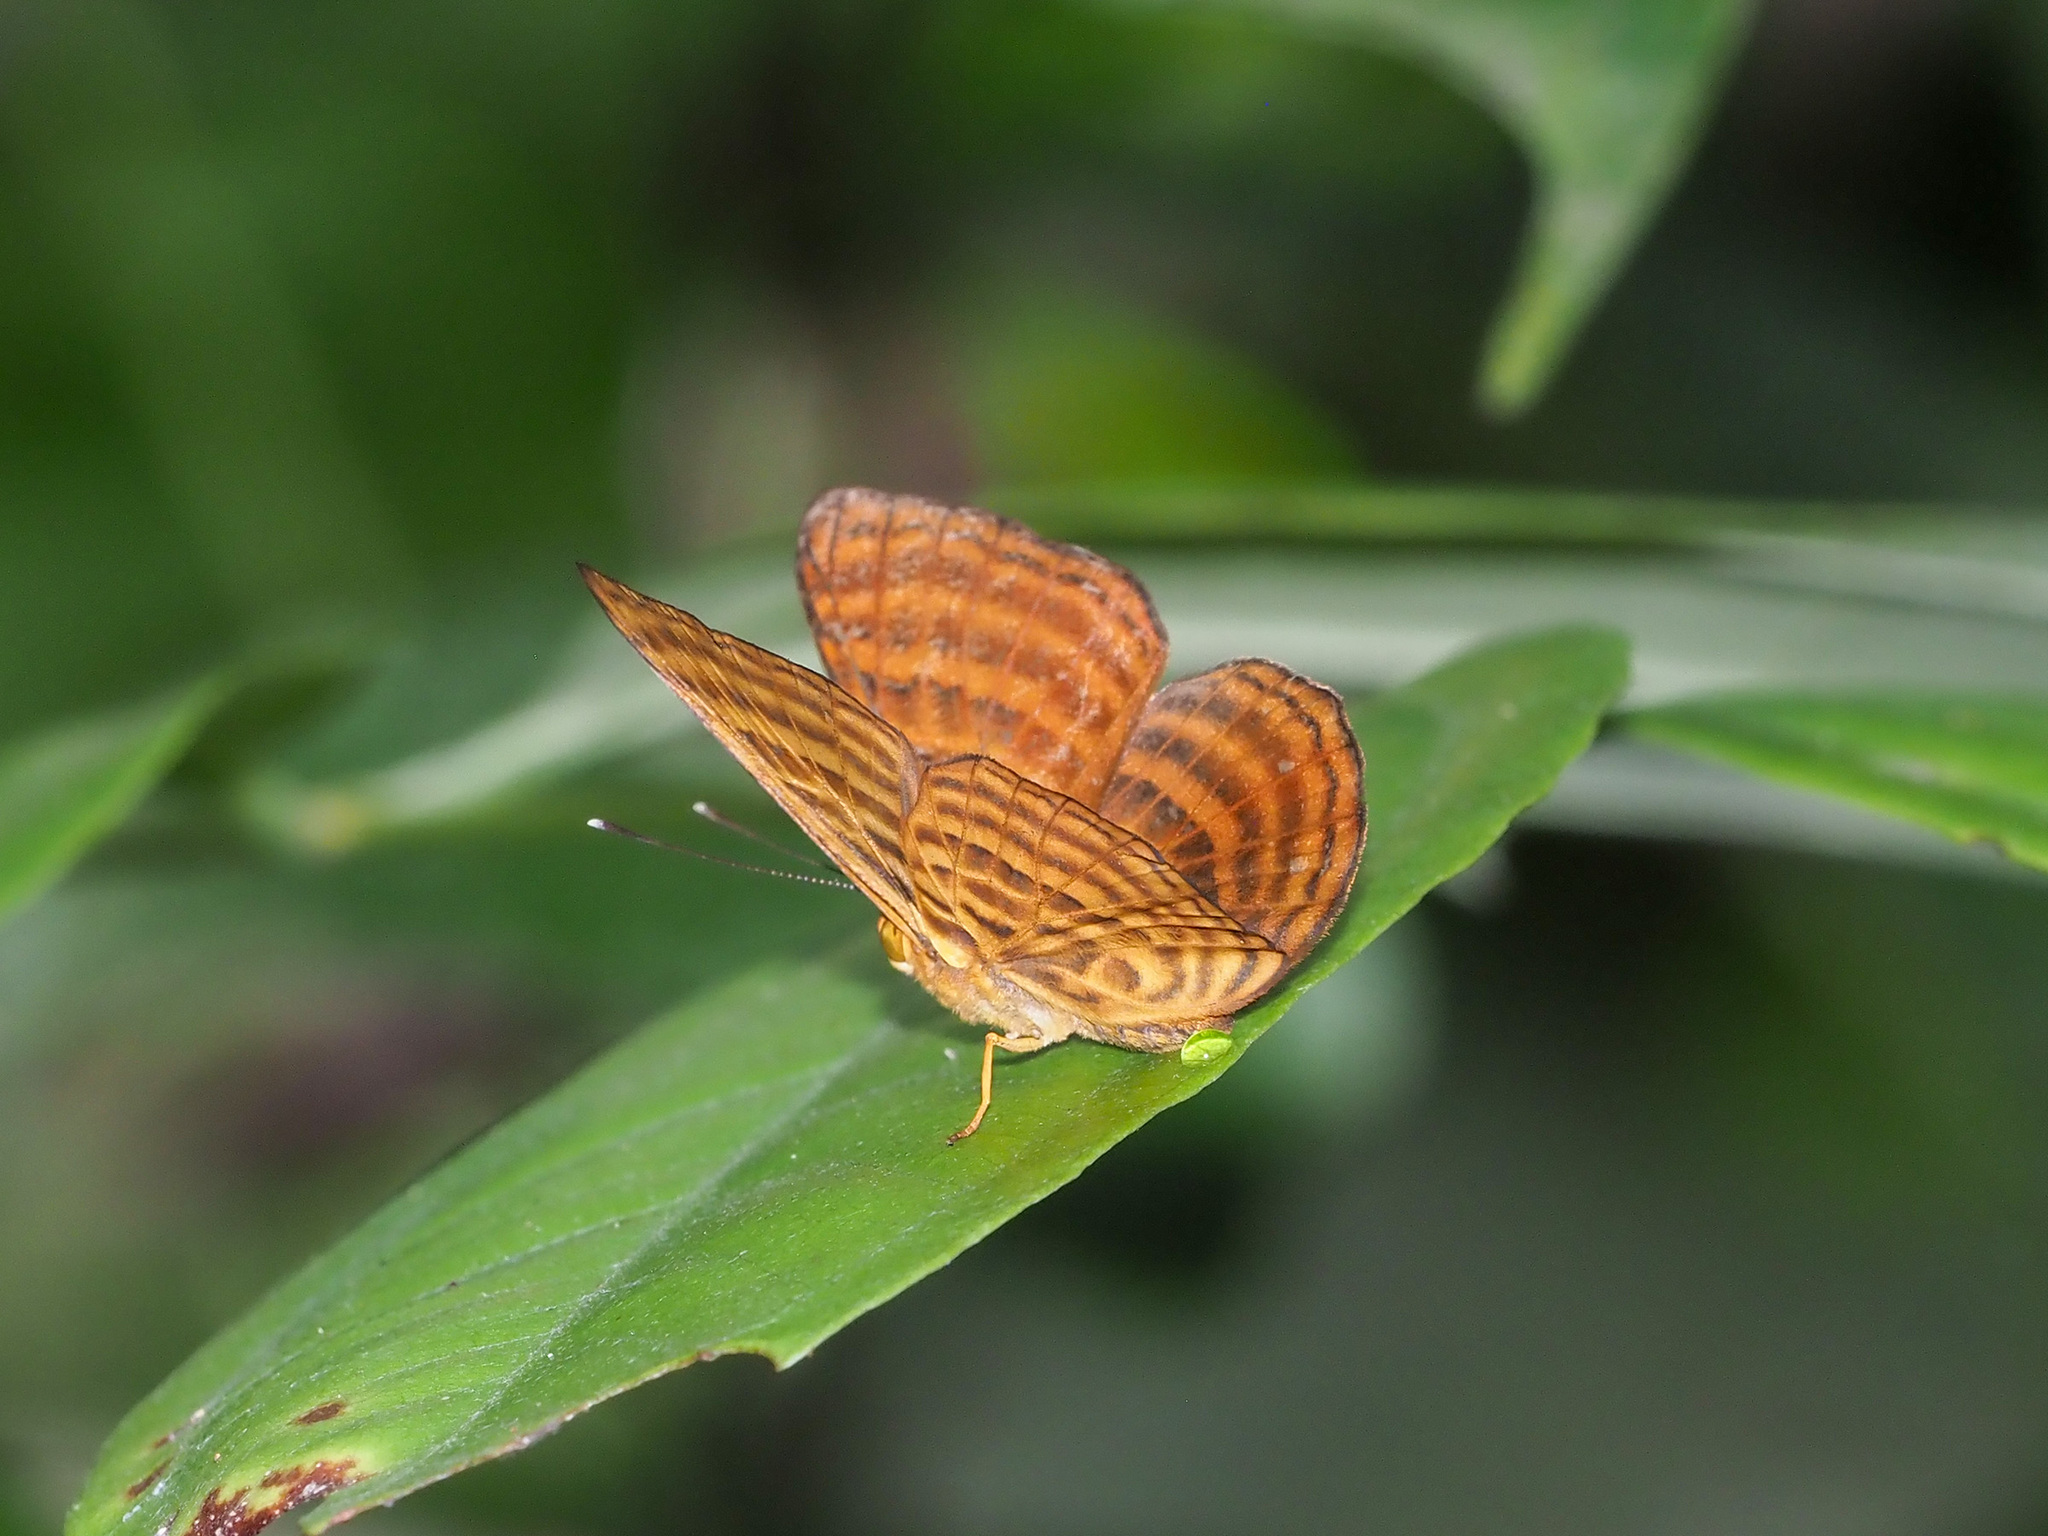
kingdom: Animalia
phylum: Arthropoda
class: Insecta
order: Lepidoptera
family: Riodinidae
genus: Zemeros
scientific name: Zemeros emesoides
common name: Malay punchinello
